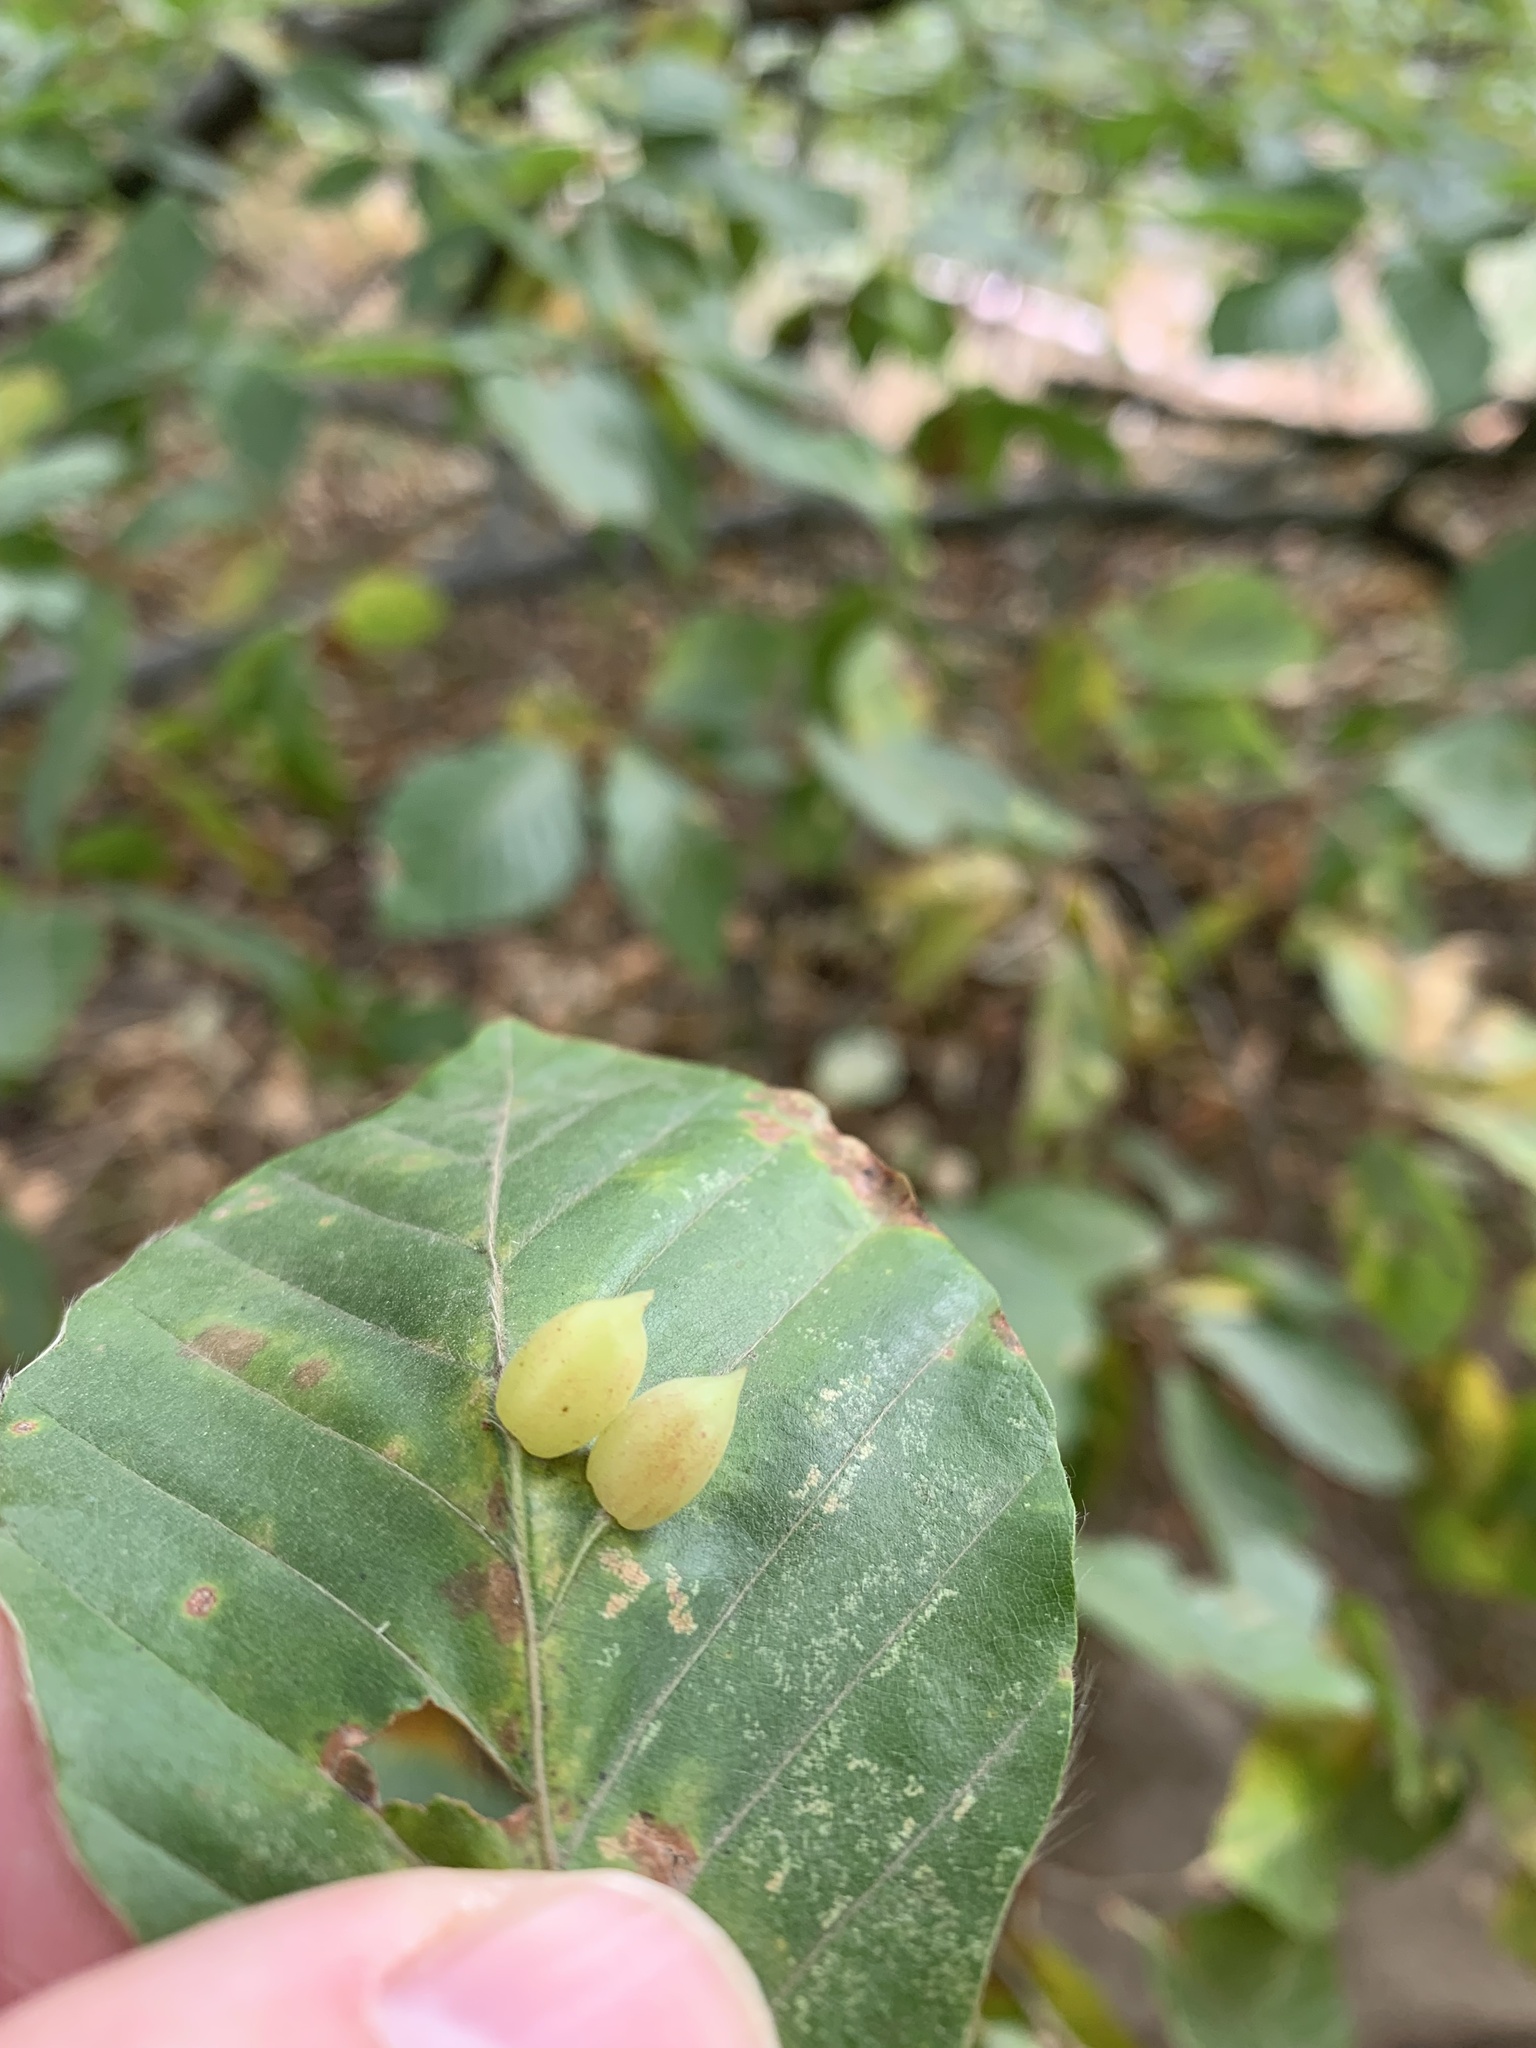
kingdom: Animalia
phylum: Arthropoda
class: Insecta
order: Diptera
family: Cecidomyiidae
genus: Mikiola
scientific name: Mikiola fagi
